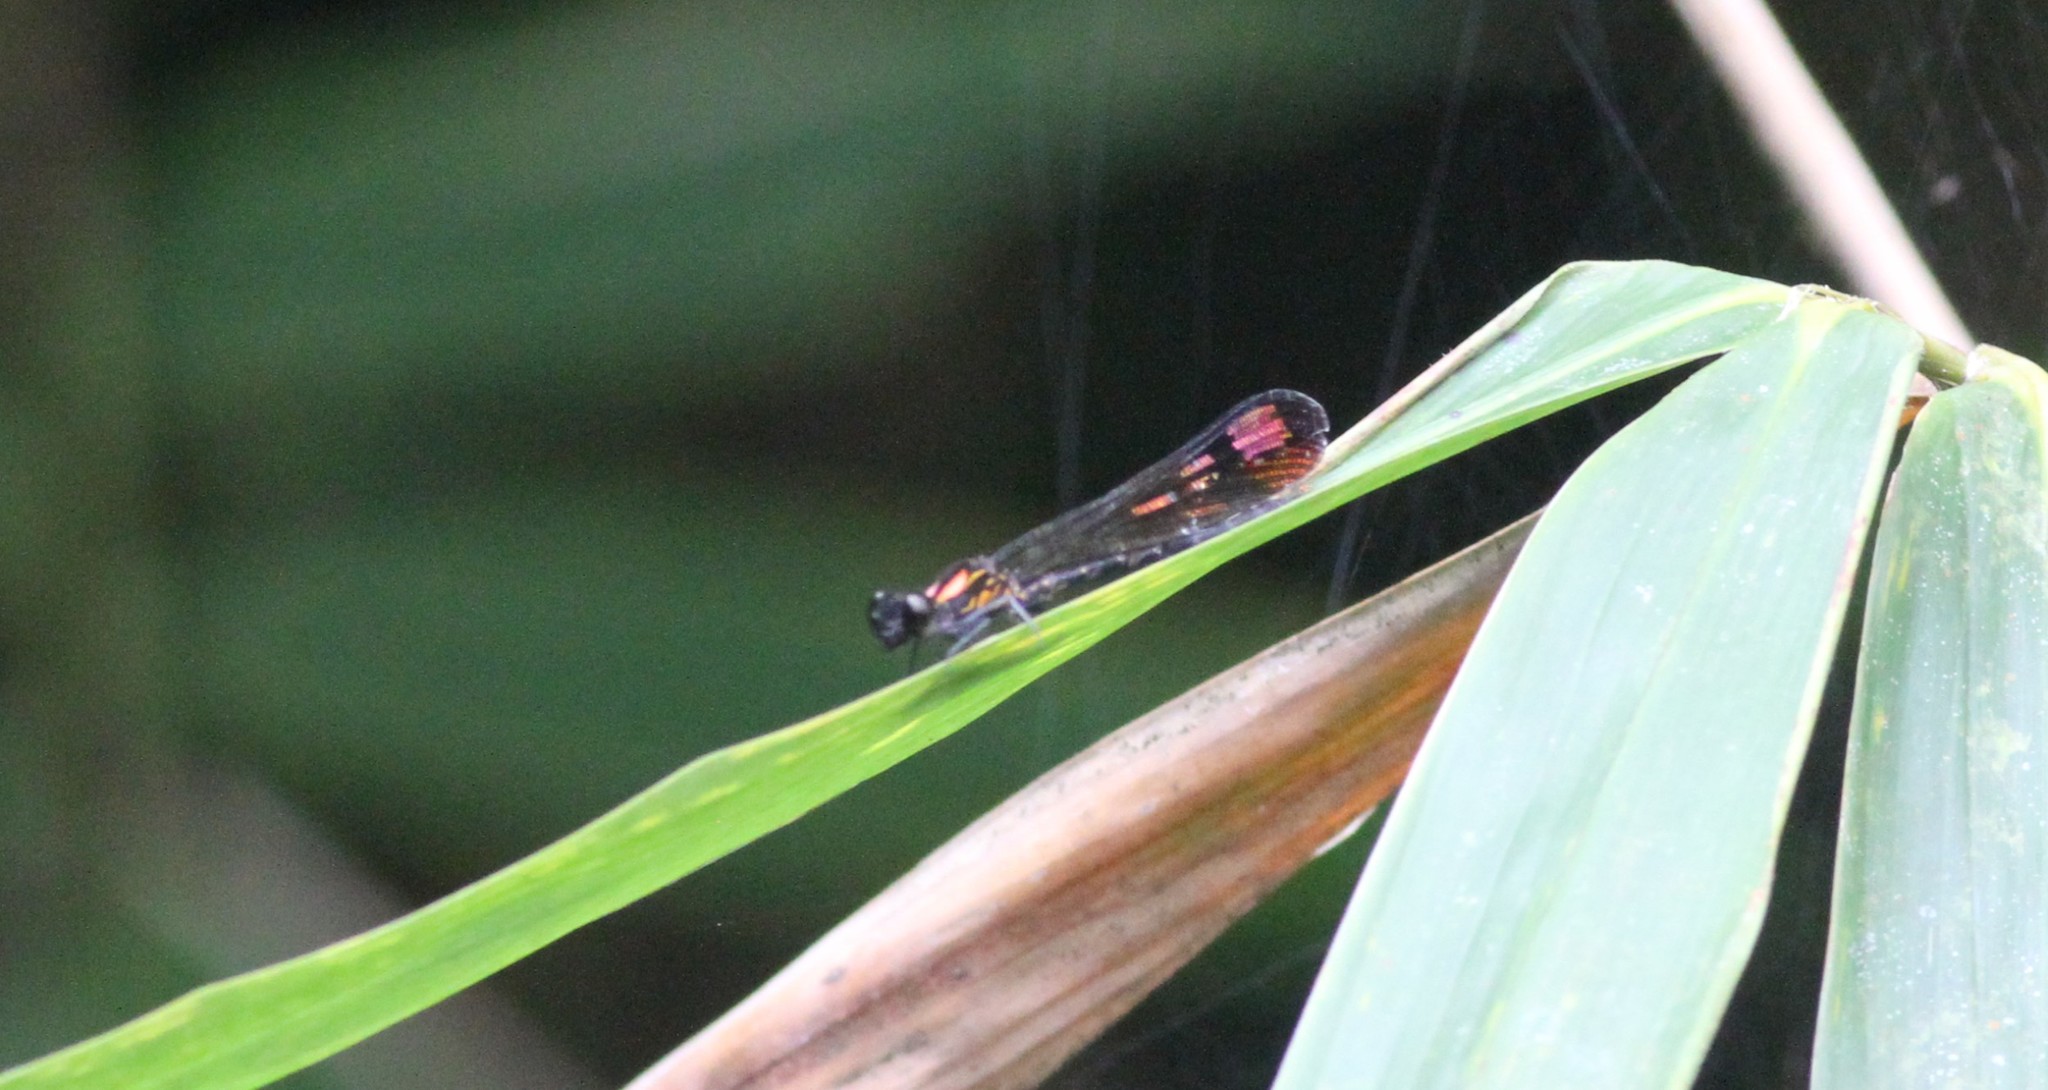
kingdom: Animalia
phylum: Arthropoda
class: Insecta
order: Odonata
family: Chlorocyphidae
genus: Heliocypha
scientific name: Heliocypha bisignata
